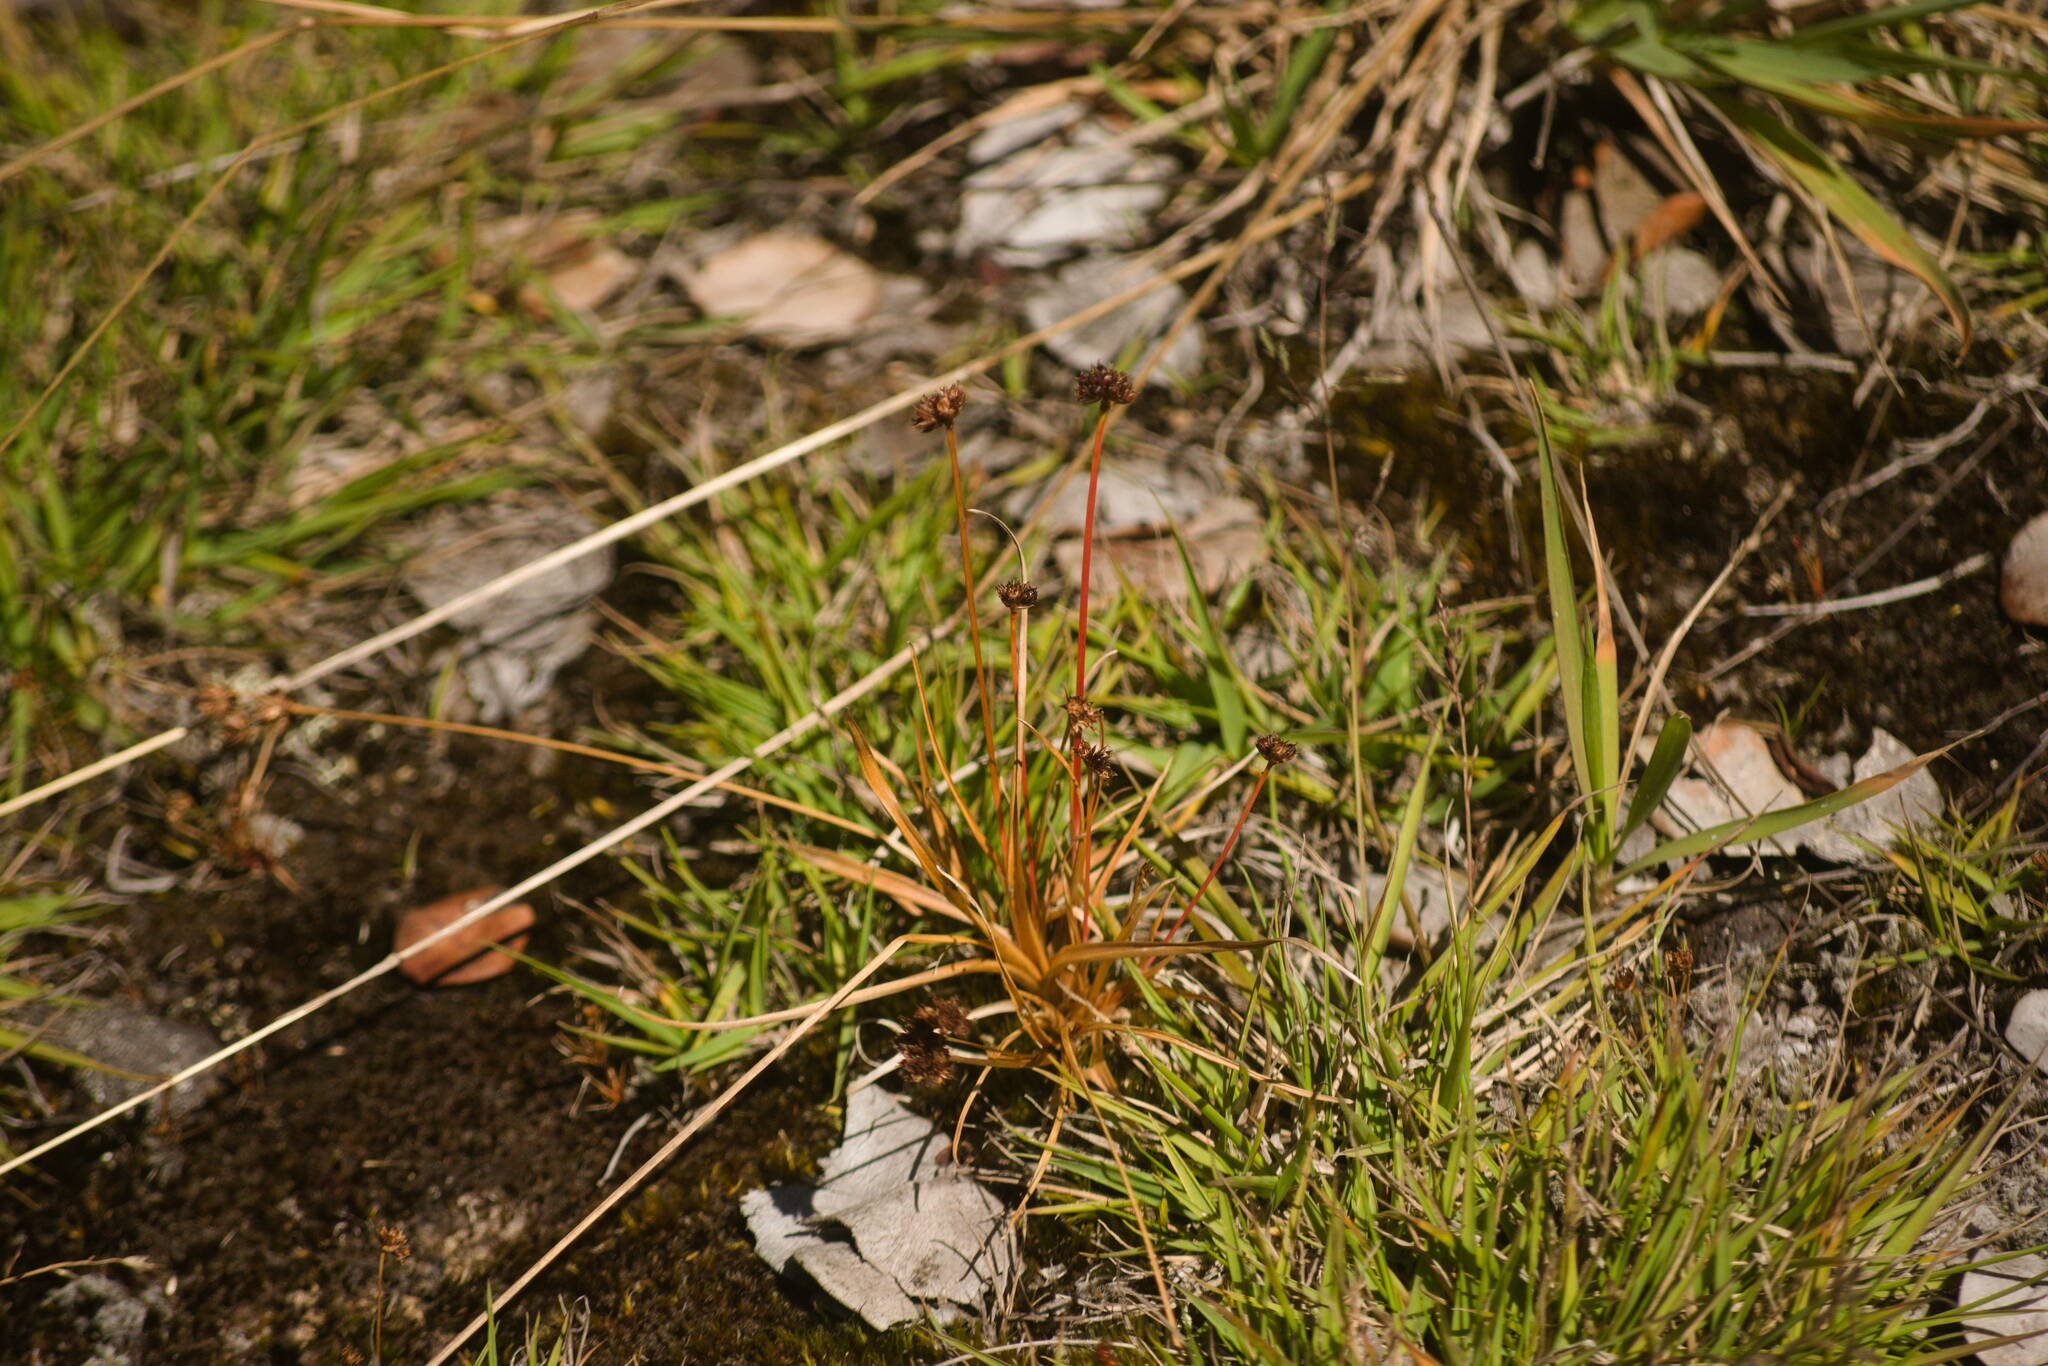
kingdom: Plantae
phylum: Tracheophyta
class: Liliopsida
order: Poales
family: Juncaceae
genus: Juncus
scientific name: Juncus planifolius
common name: Broadleaf rush
